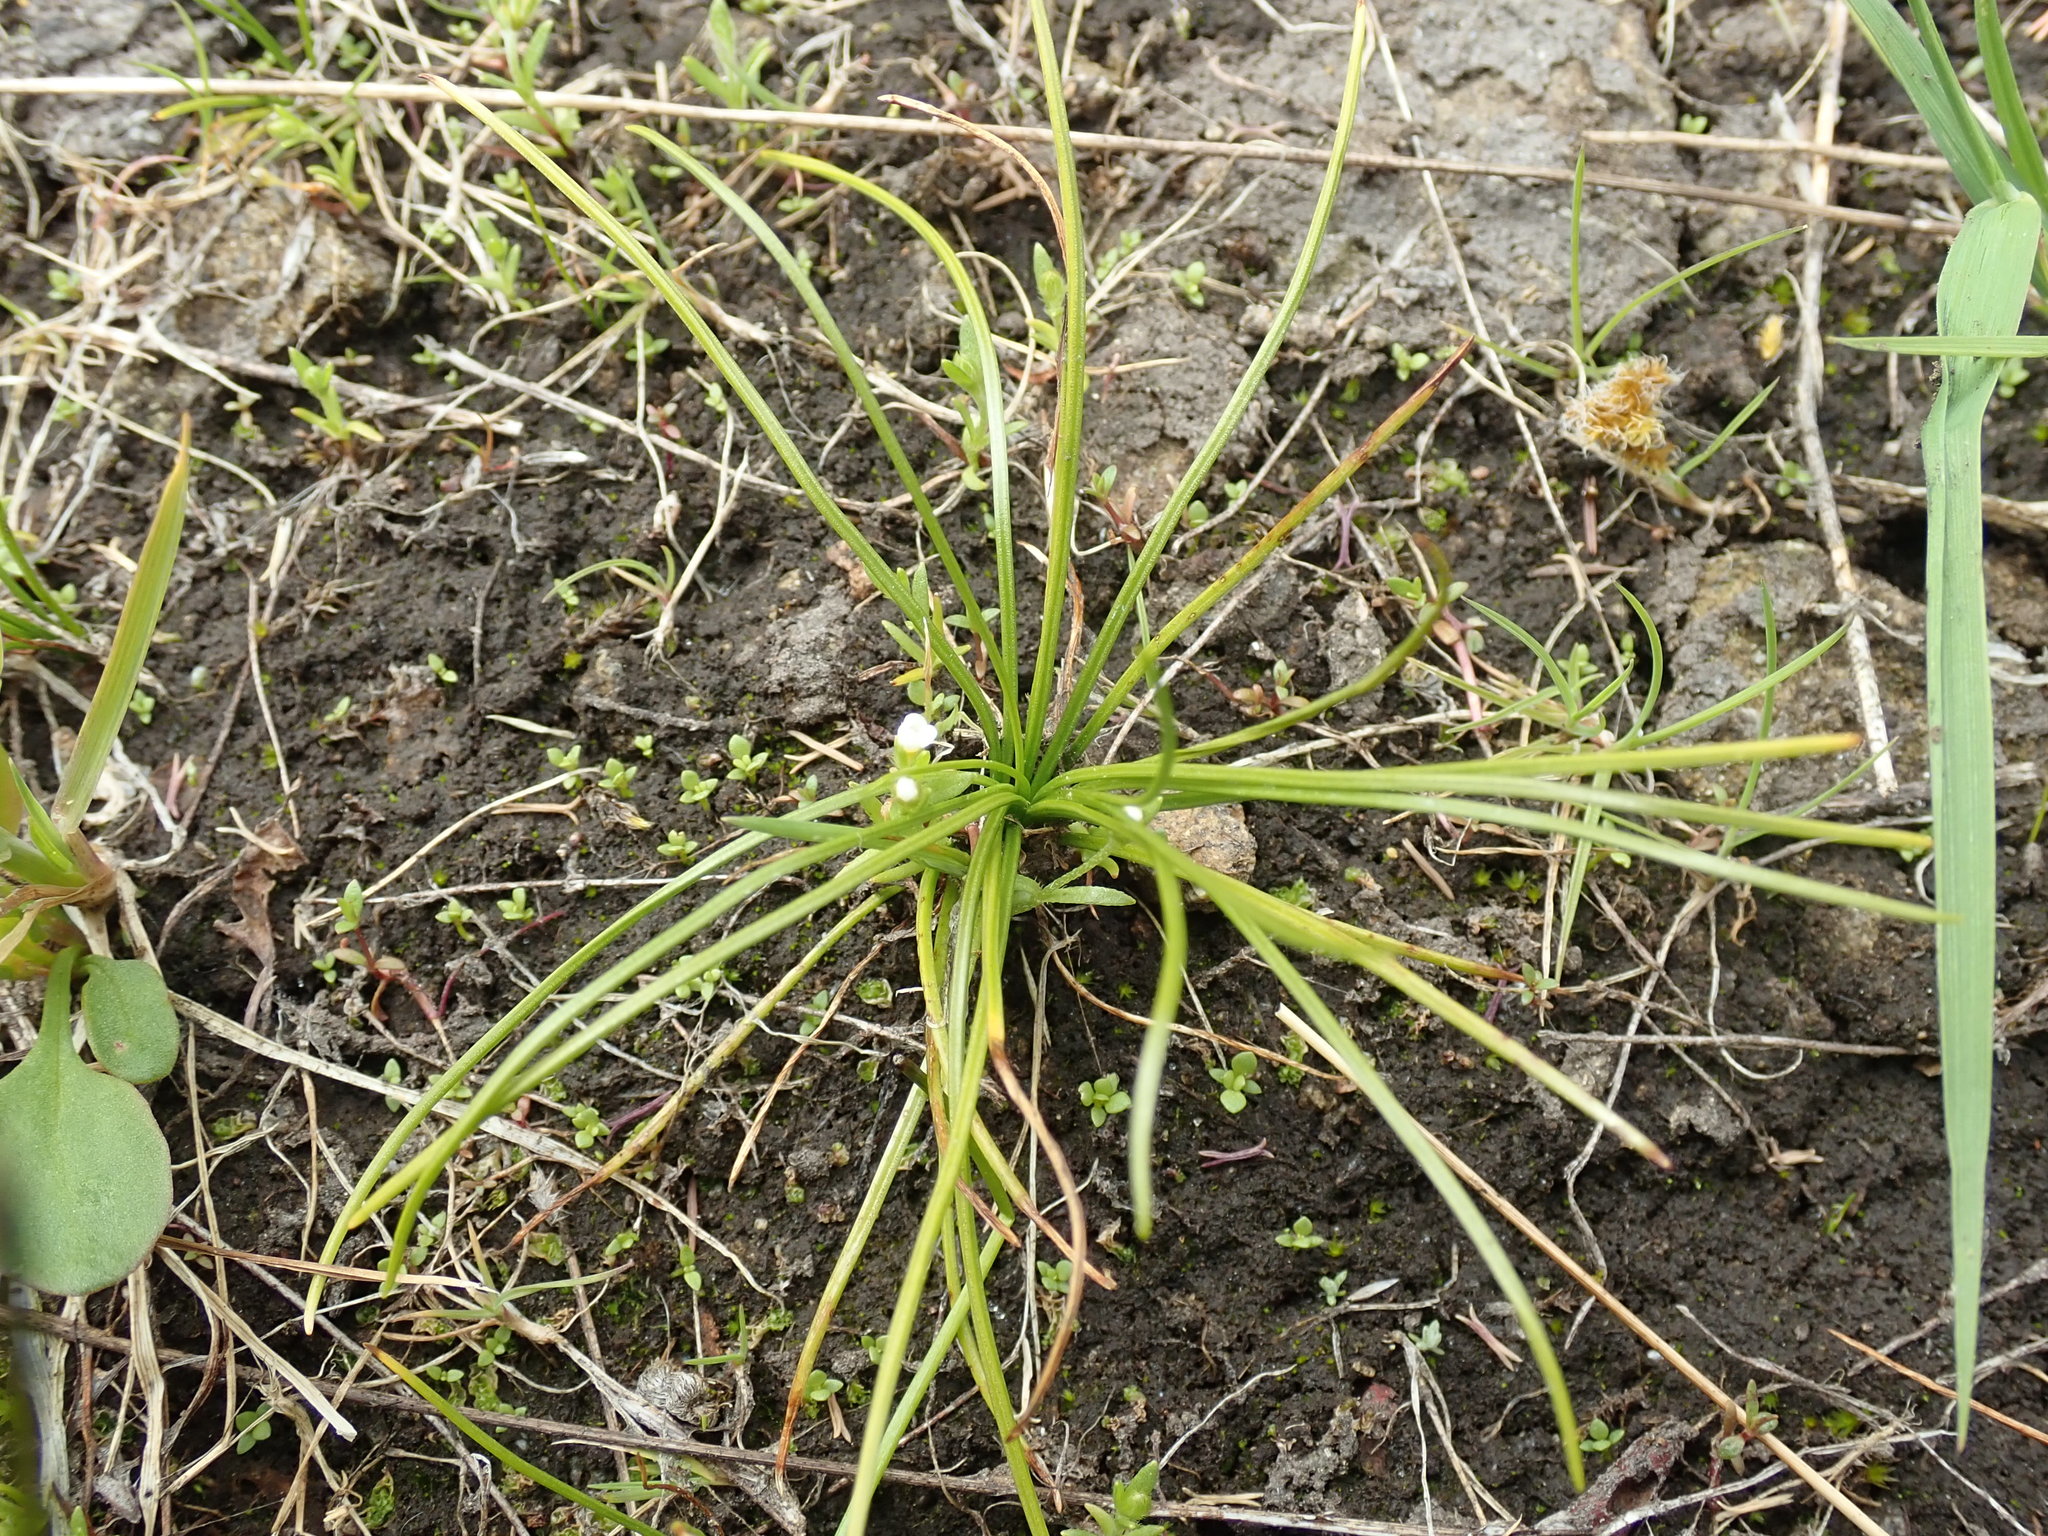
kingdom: Plantae
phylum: Tracheophyta
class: Lycopodiopsida
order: Isoetales
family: Isoetaceae
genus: Isoetes
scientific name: Isoetes nuttallii
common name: Nuttall's quillwort
